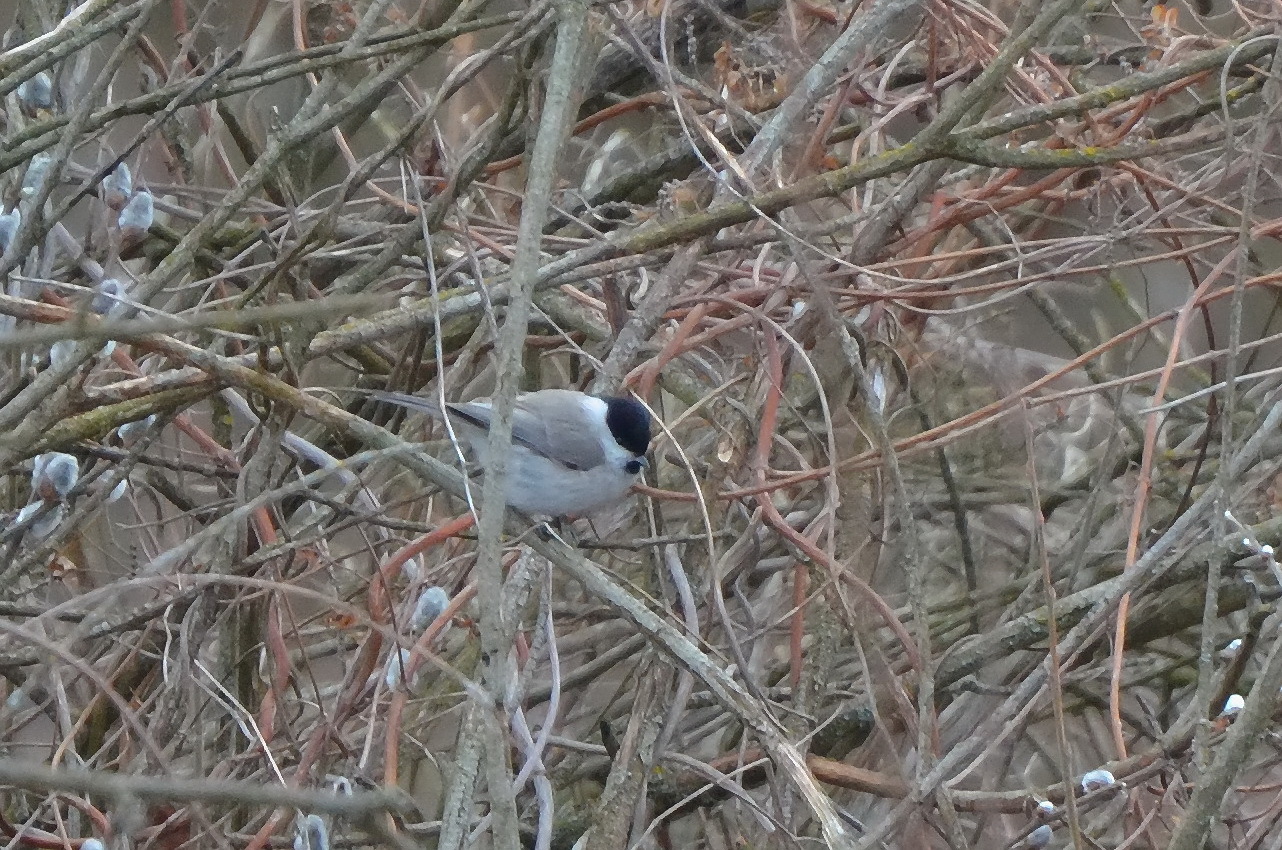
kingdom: Animalia
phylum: Chordata
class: Aves
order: Passeriformes
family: Paridae
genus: Poecile
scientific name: Poecile palustris
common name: Marsh tit
